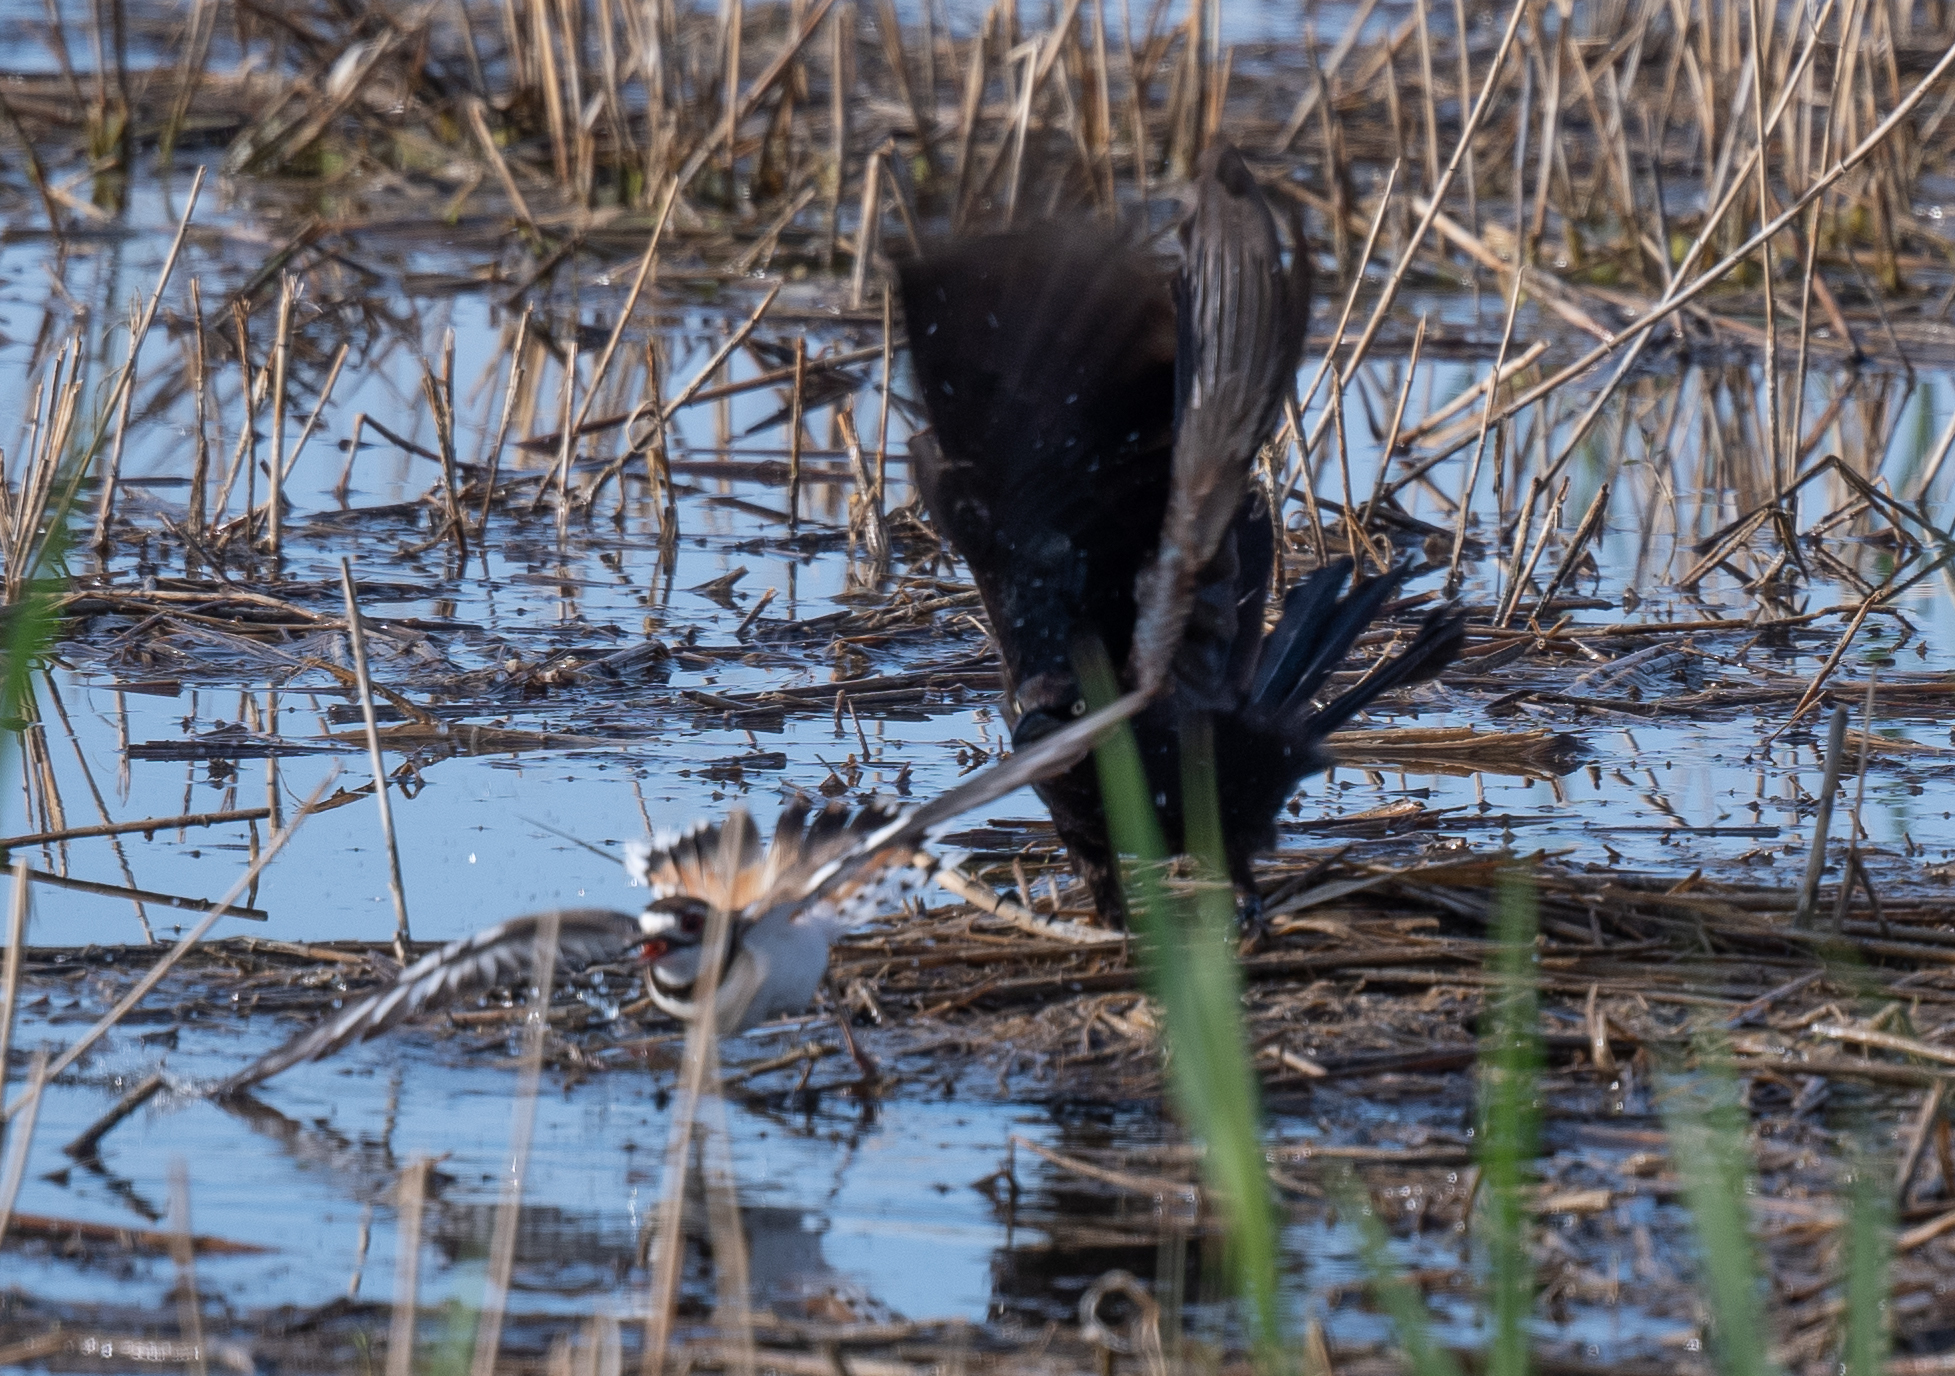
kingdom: Animalia
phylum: Chordata
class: Aves
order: Passeriformes
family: Icteridae
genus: Quiscalus
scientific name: Quiscalus mexicanus
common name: Great-tailed grackle
